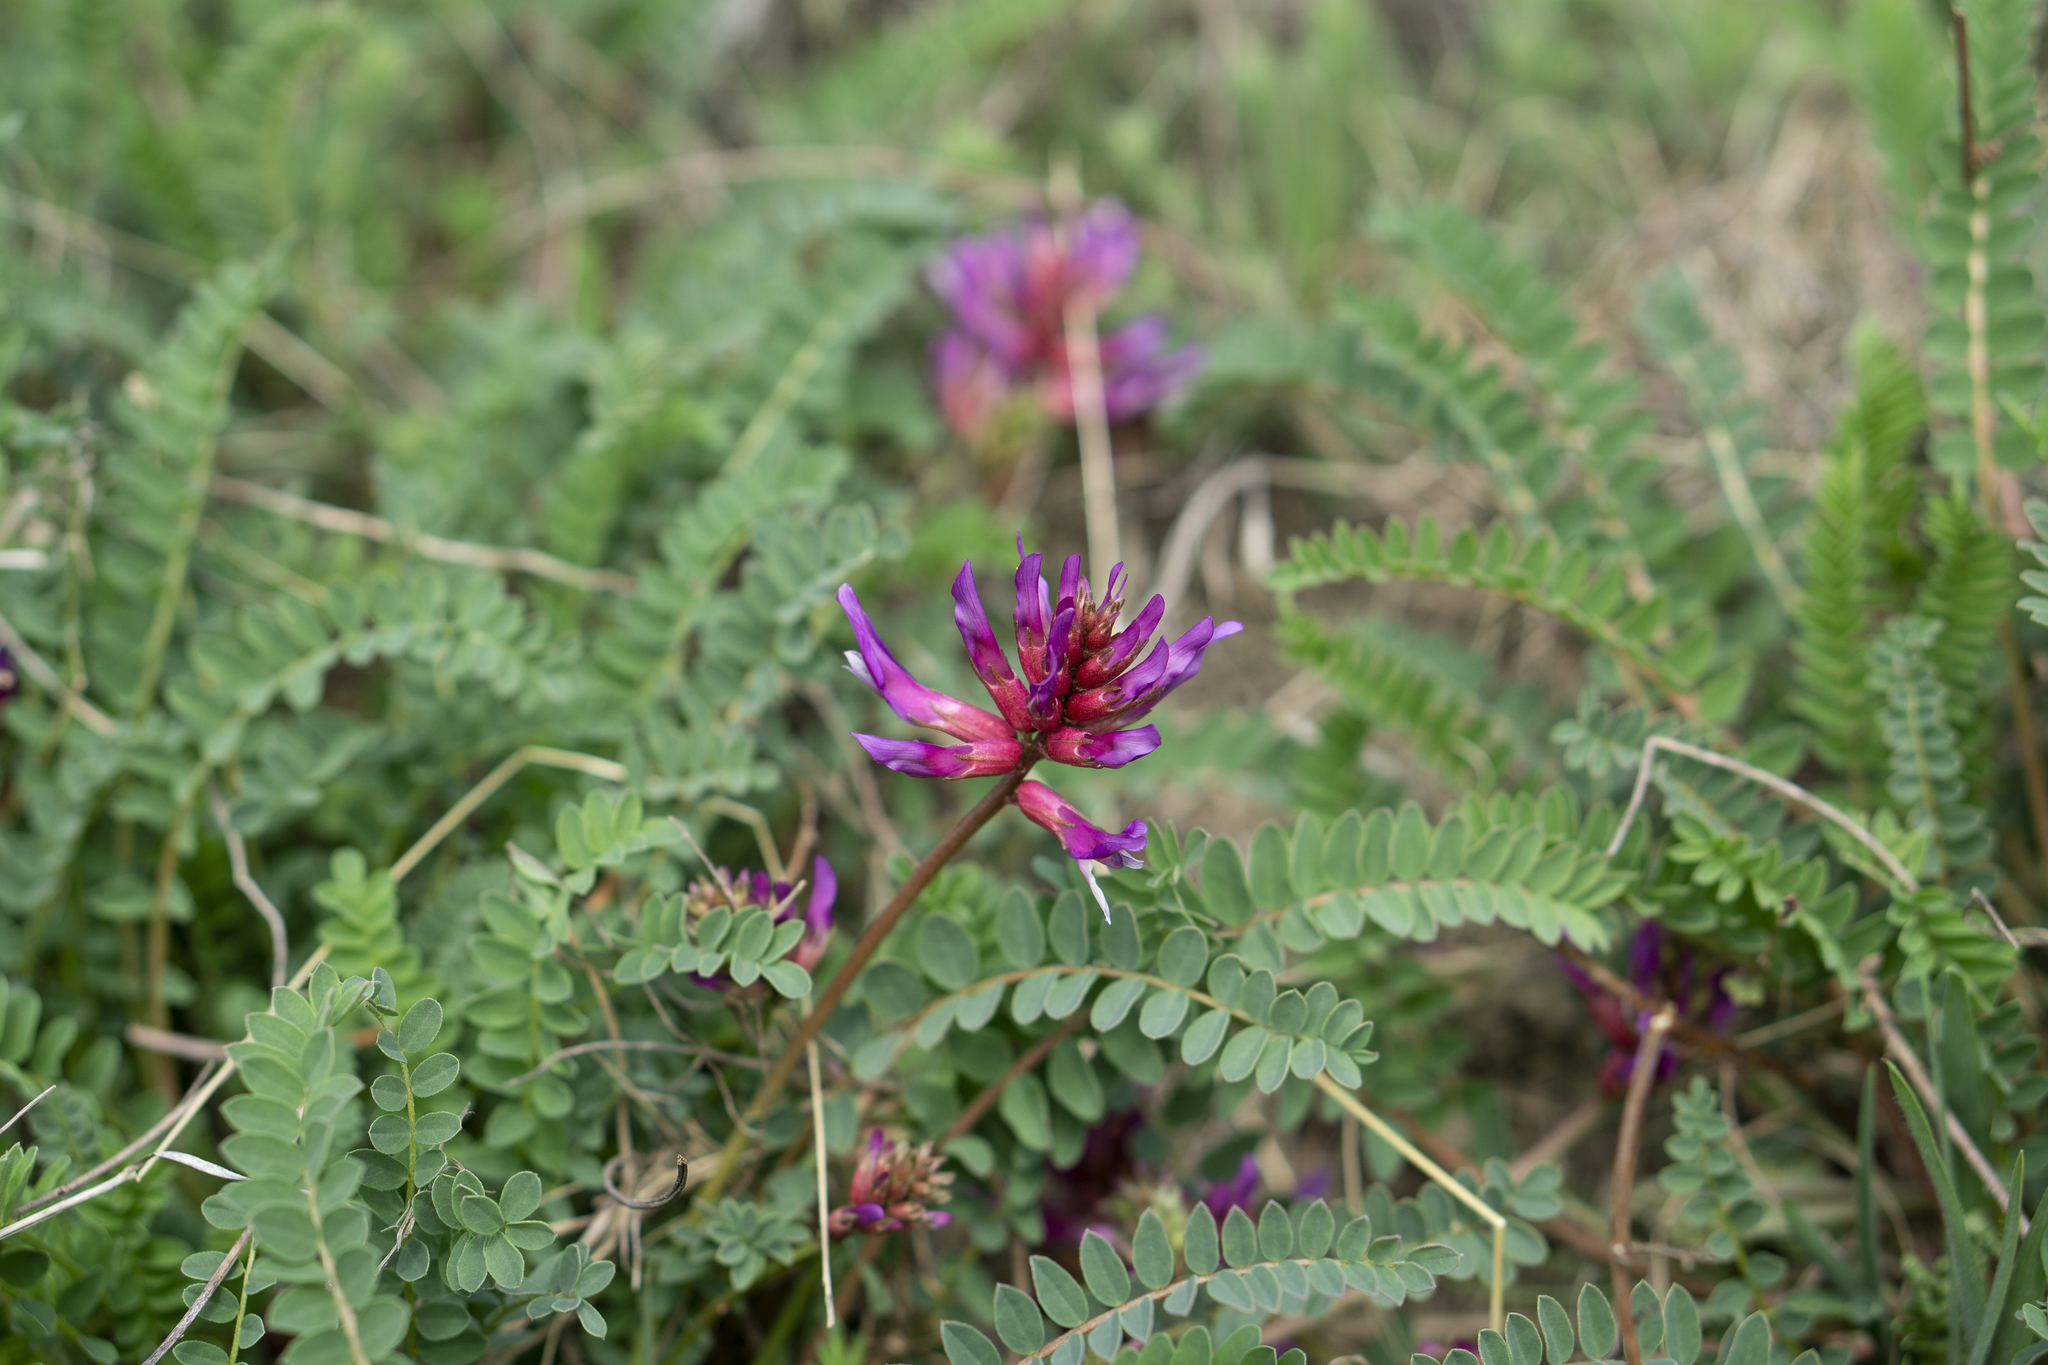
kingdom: Plantae
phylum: Tracheophyta
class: Magnoliopsida
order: Fabales
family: Fabaceae
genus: Astragalus
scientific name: Astragalus monspessulanus
